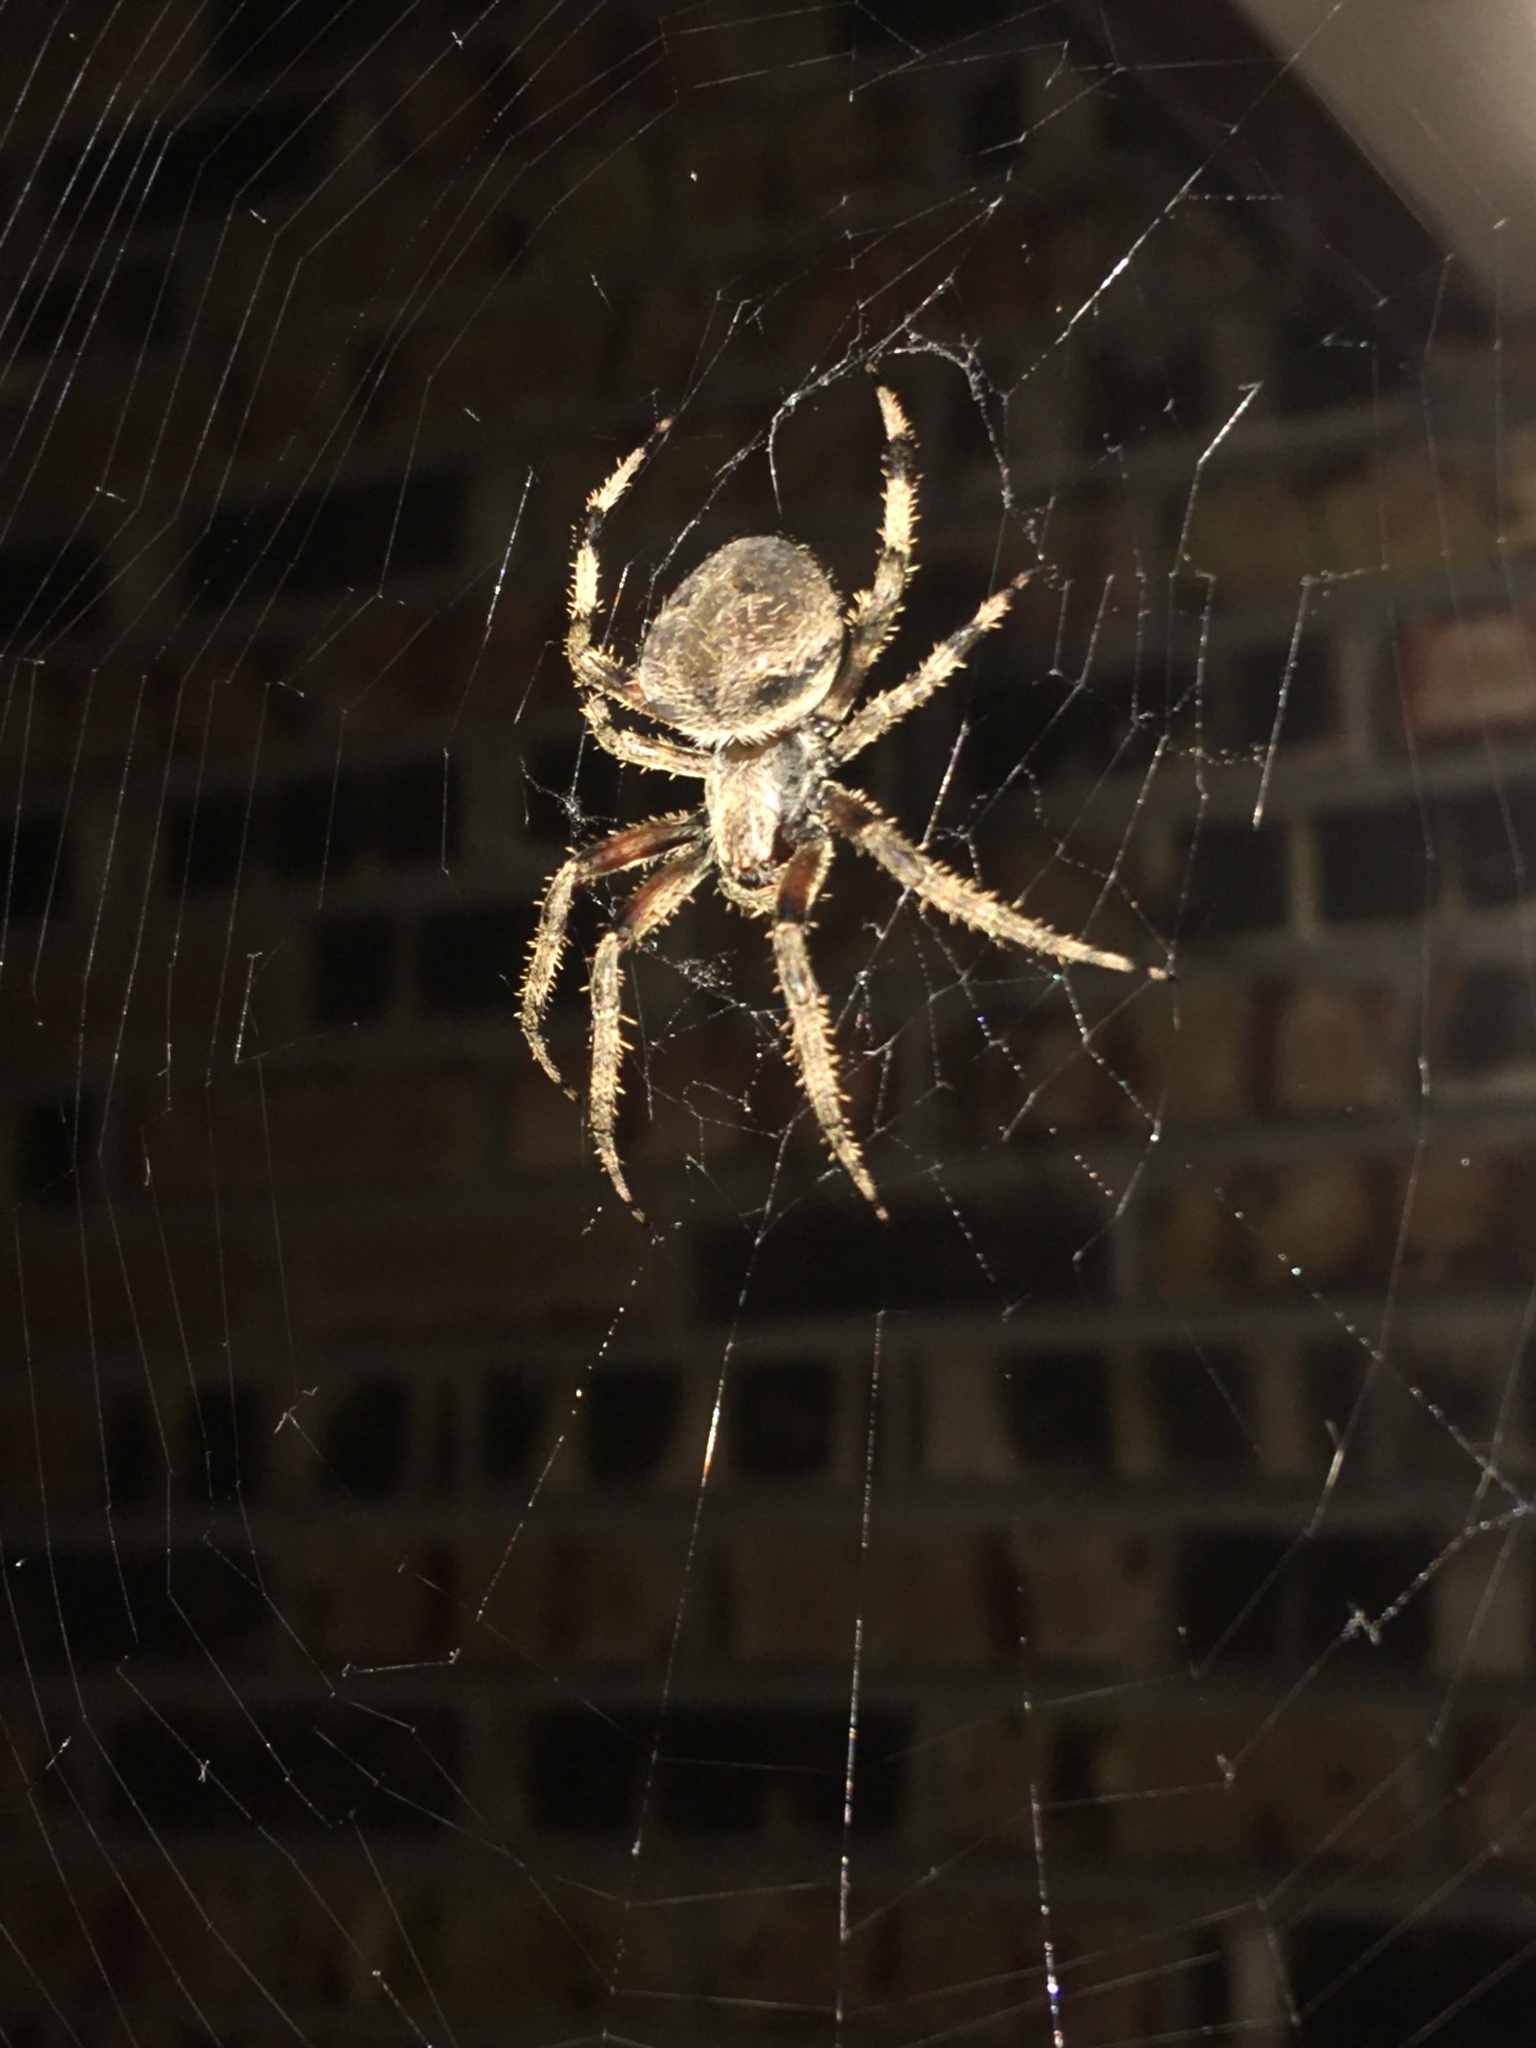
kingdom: Animalia
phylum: Arthropoda
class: Arachnida
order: Araneae
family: Araneidae
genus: Neoscona
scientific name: Neoscona crucifera
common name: Spotted orbweaver
